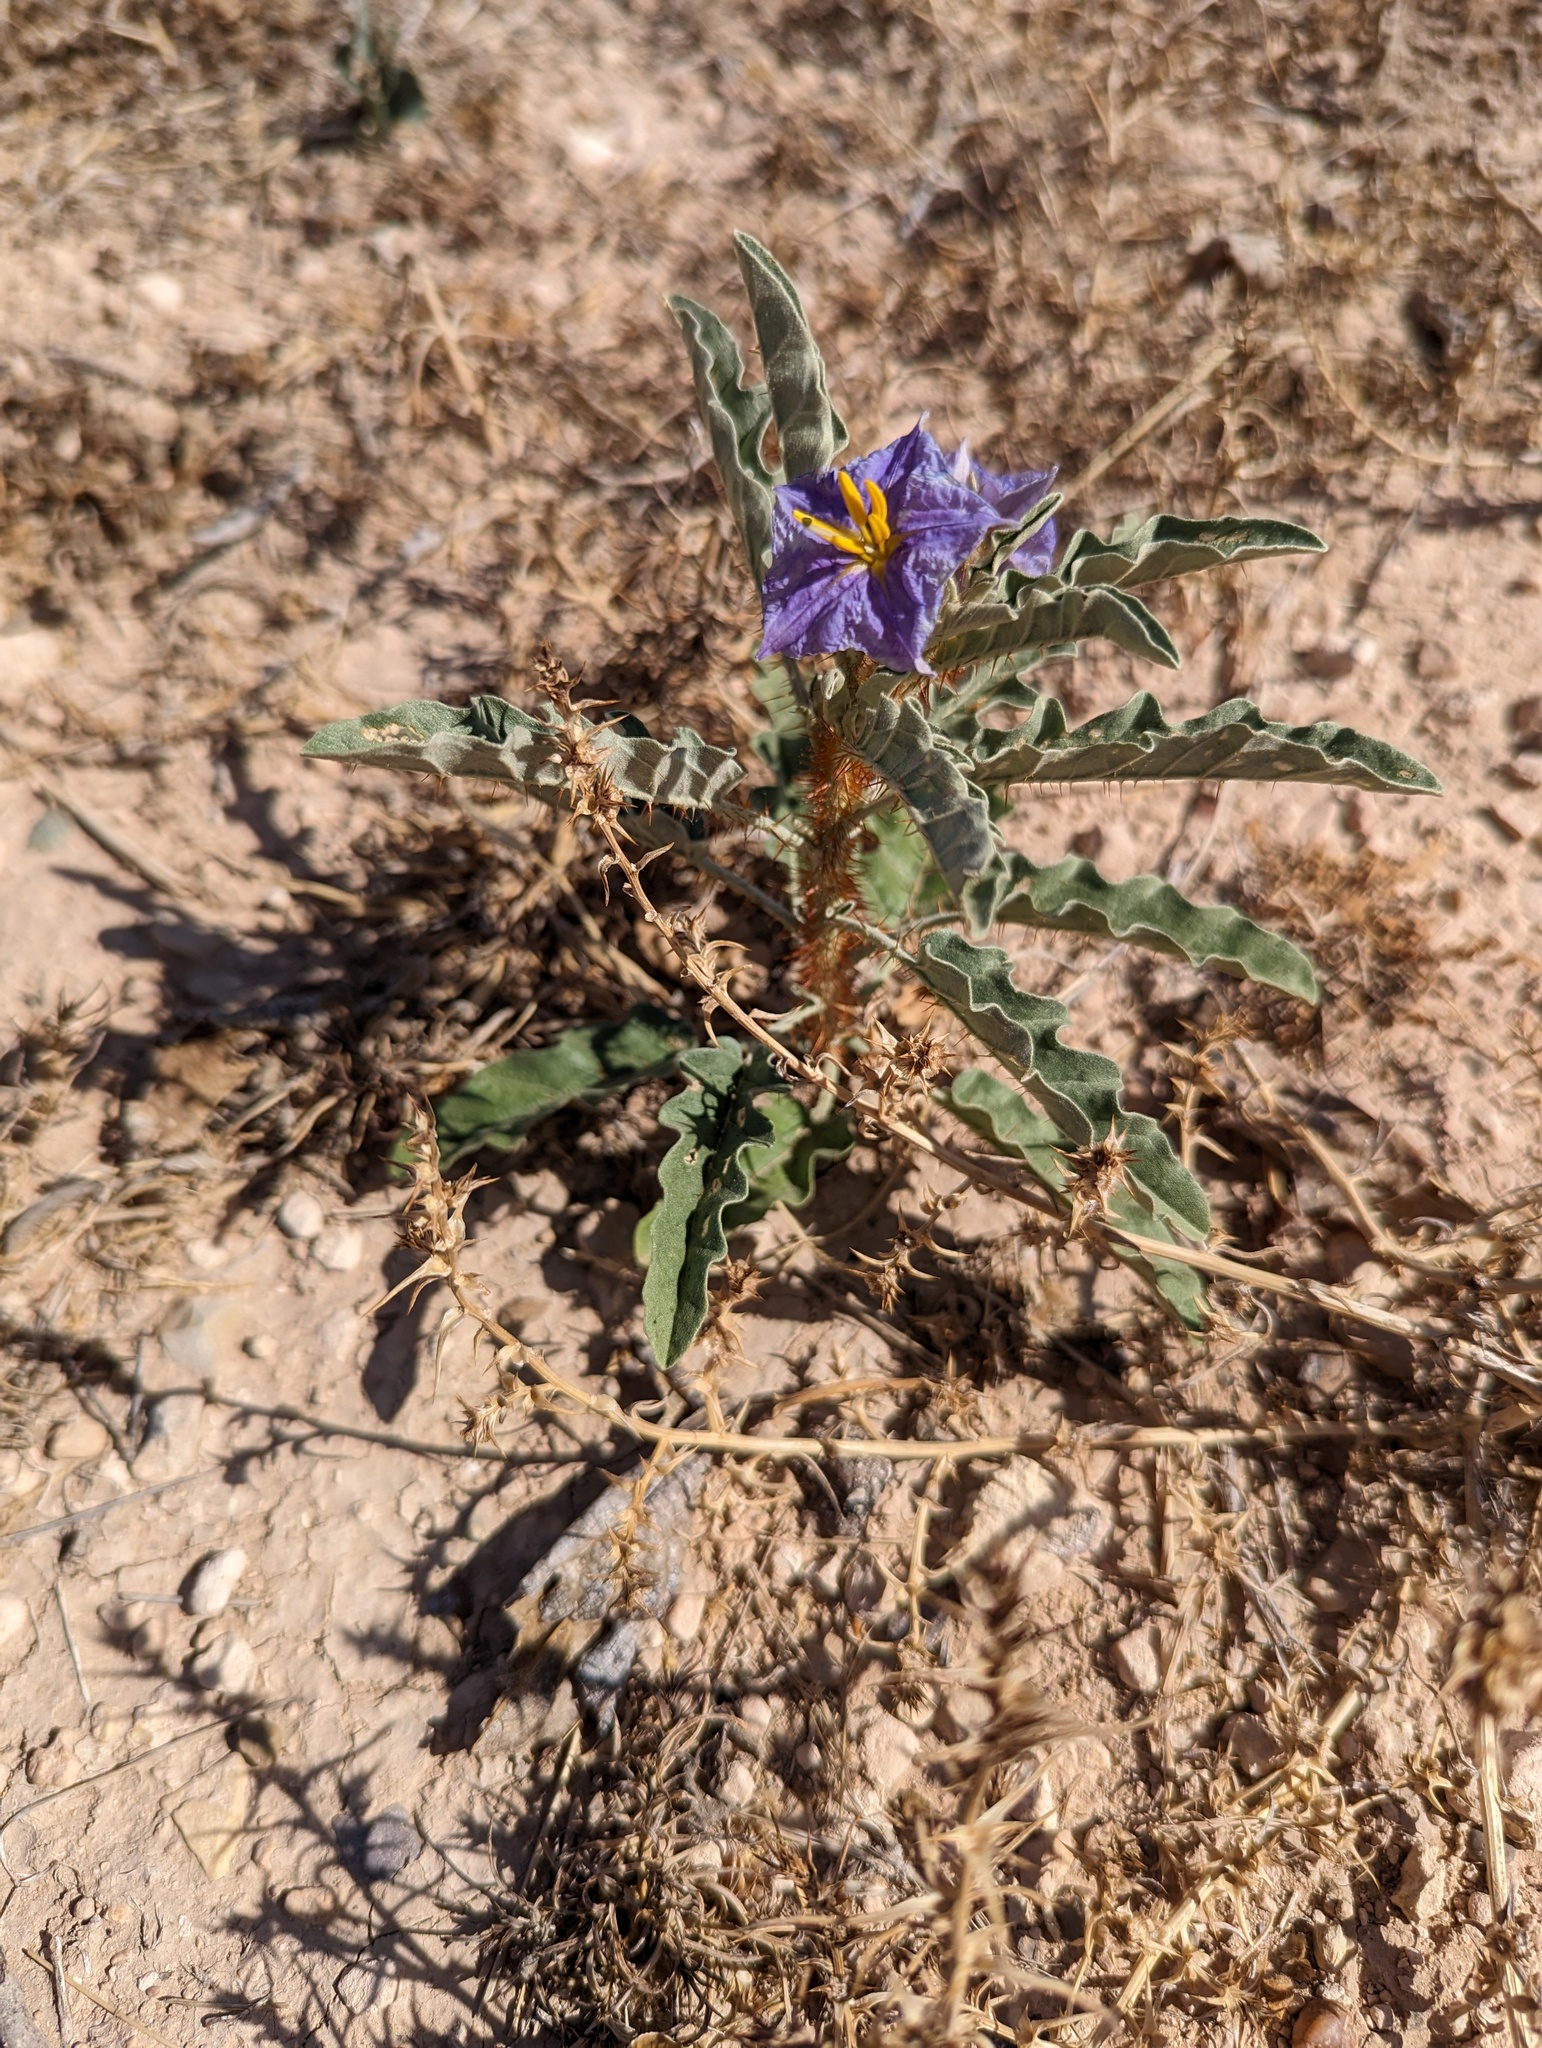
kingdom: Plantae
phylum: Tracheophyta
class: Magnoliopsida
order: Solanales
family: Solanaceae
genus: Solanum
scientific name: Solanum elaeagnifolium
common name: Silverleaf nightshade
